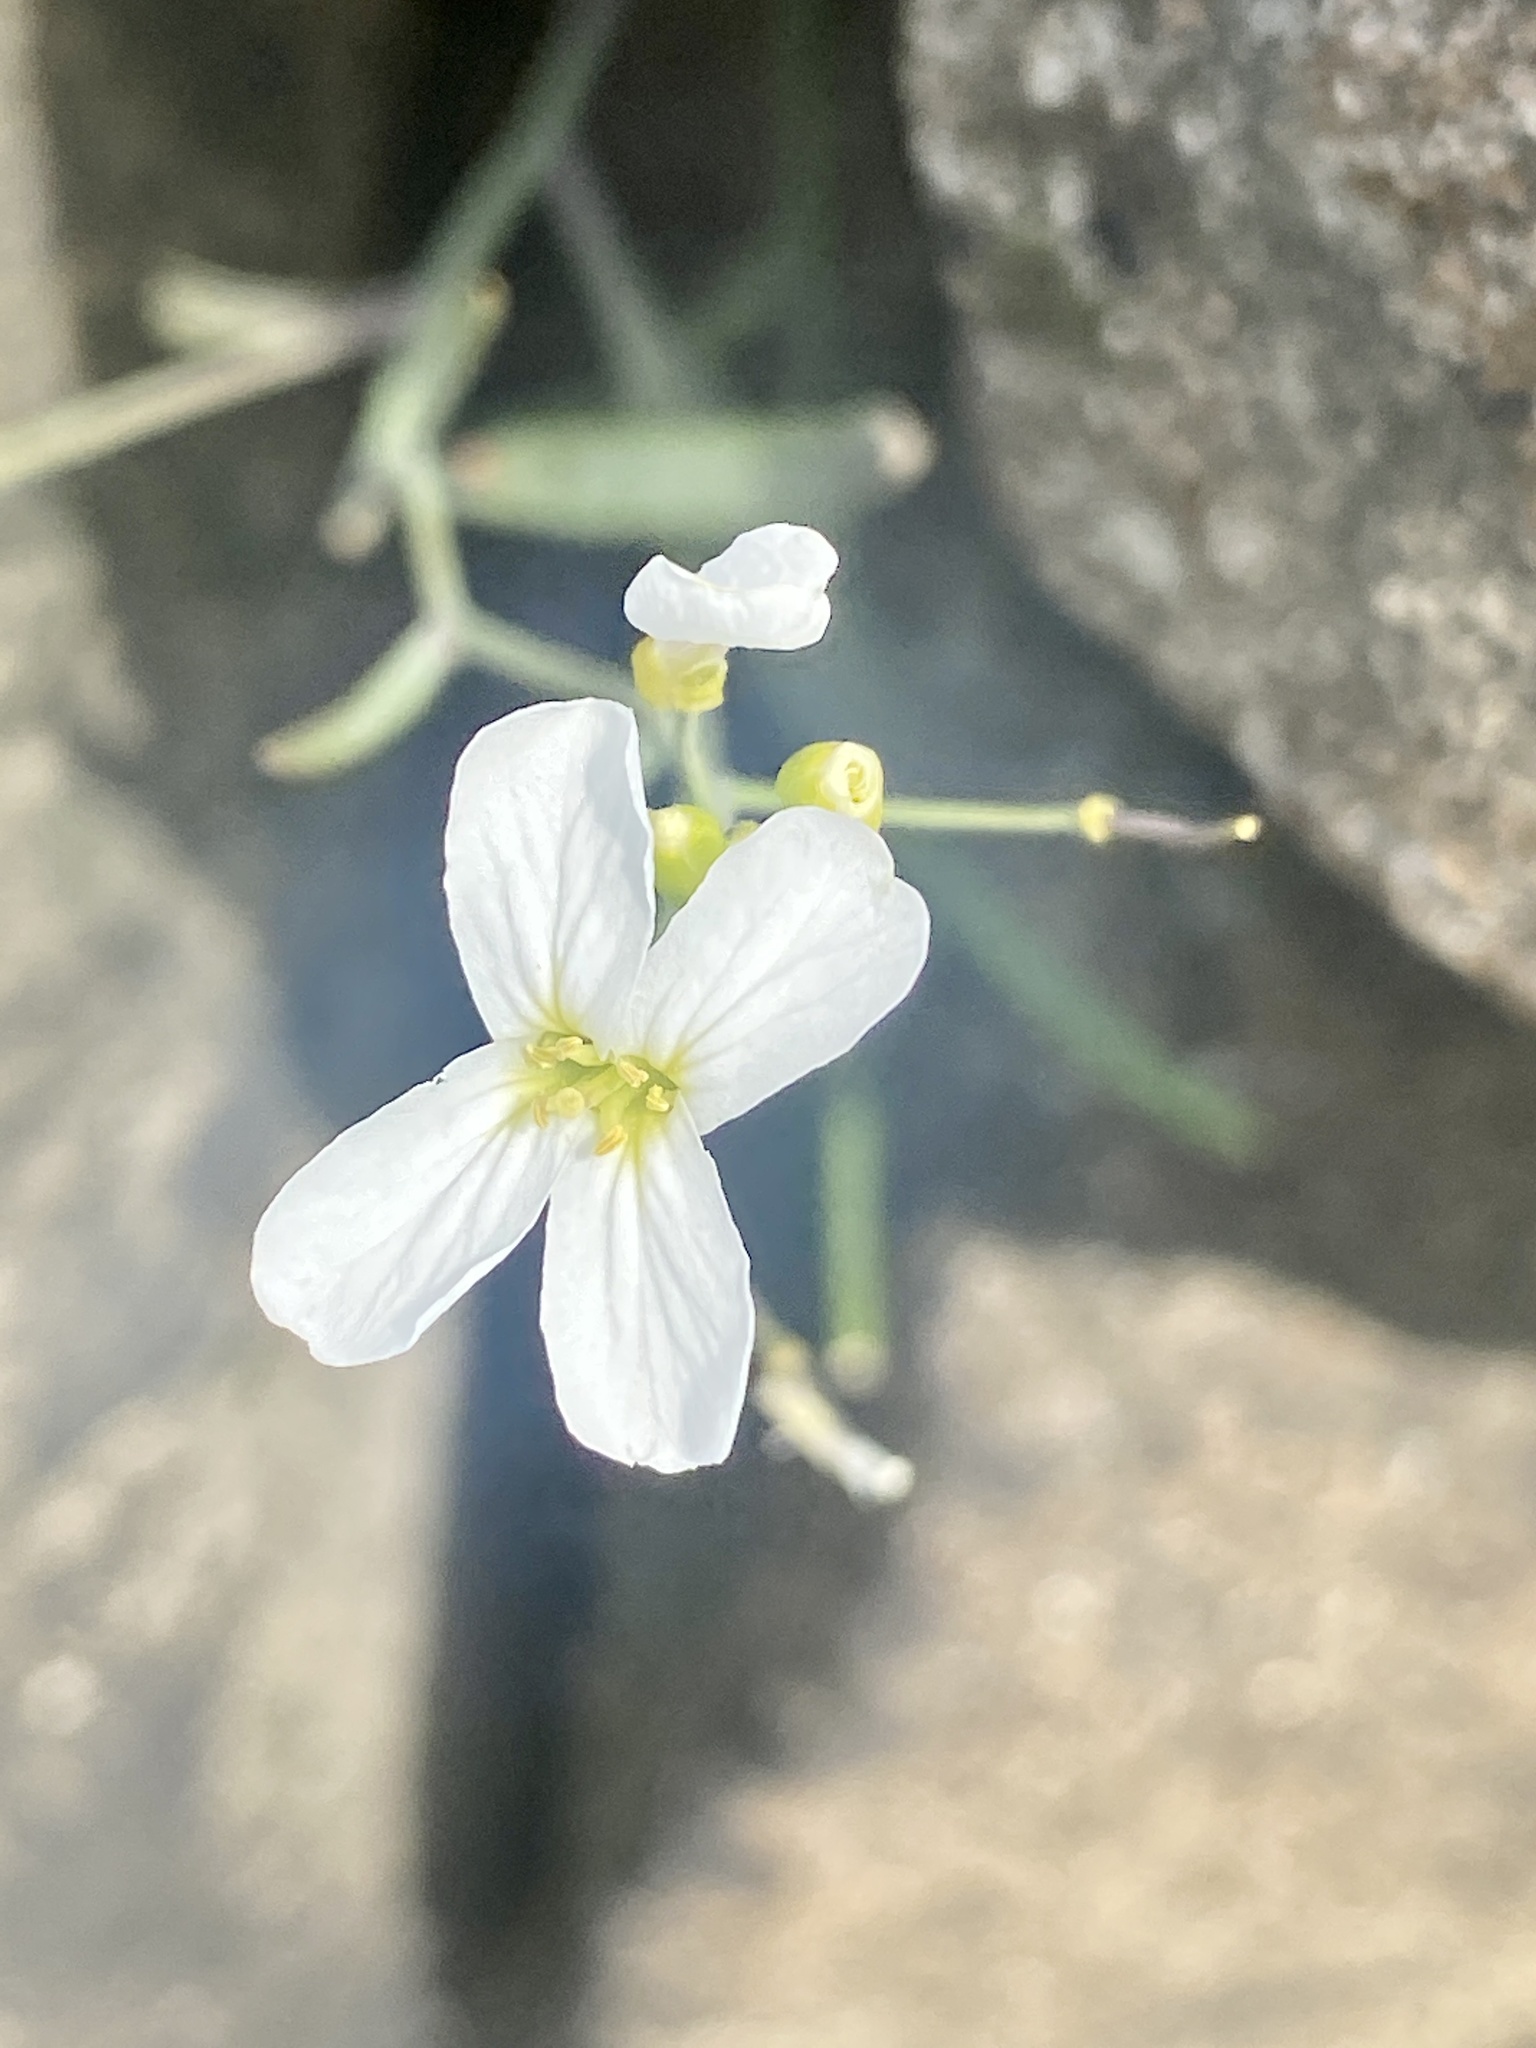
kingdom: Plantae
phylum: Tracheophyta
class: Magnoliopsida
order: Brassicales
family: Brassicaceae
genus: Arabidopsis
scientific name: Arabidopsis lyrata
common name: Lyrate rockcress
